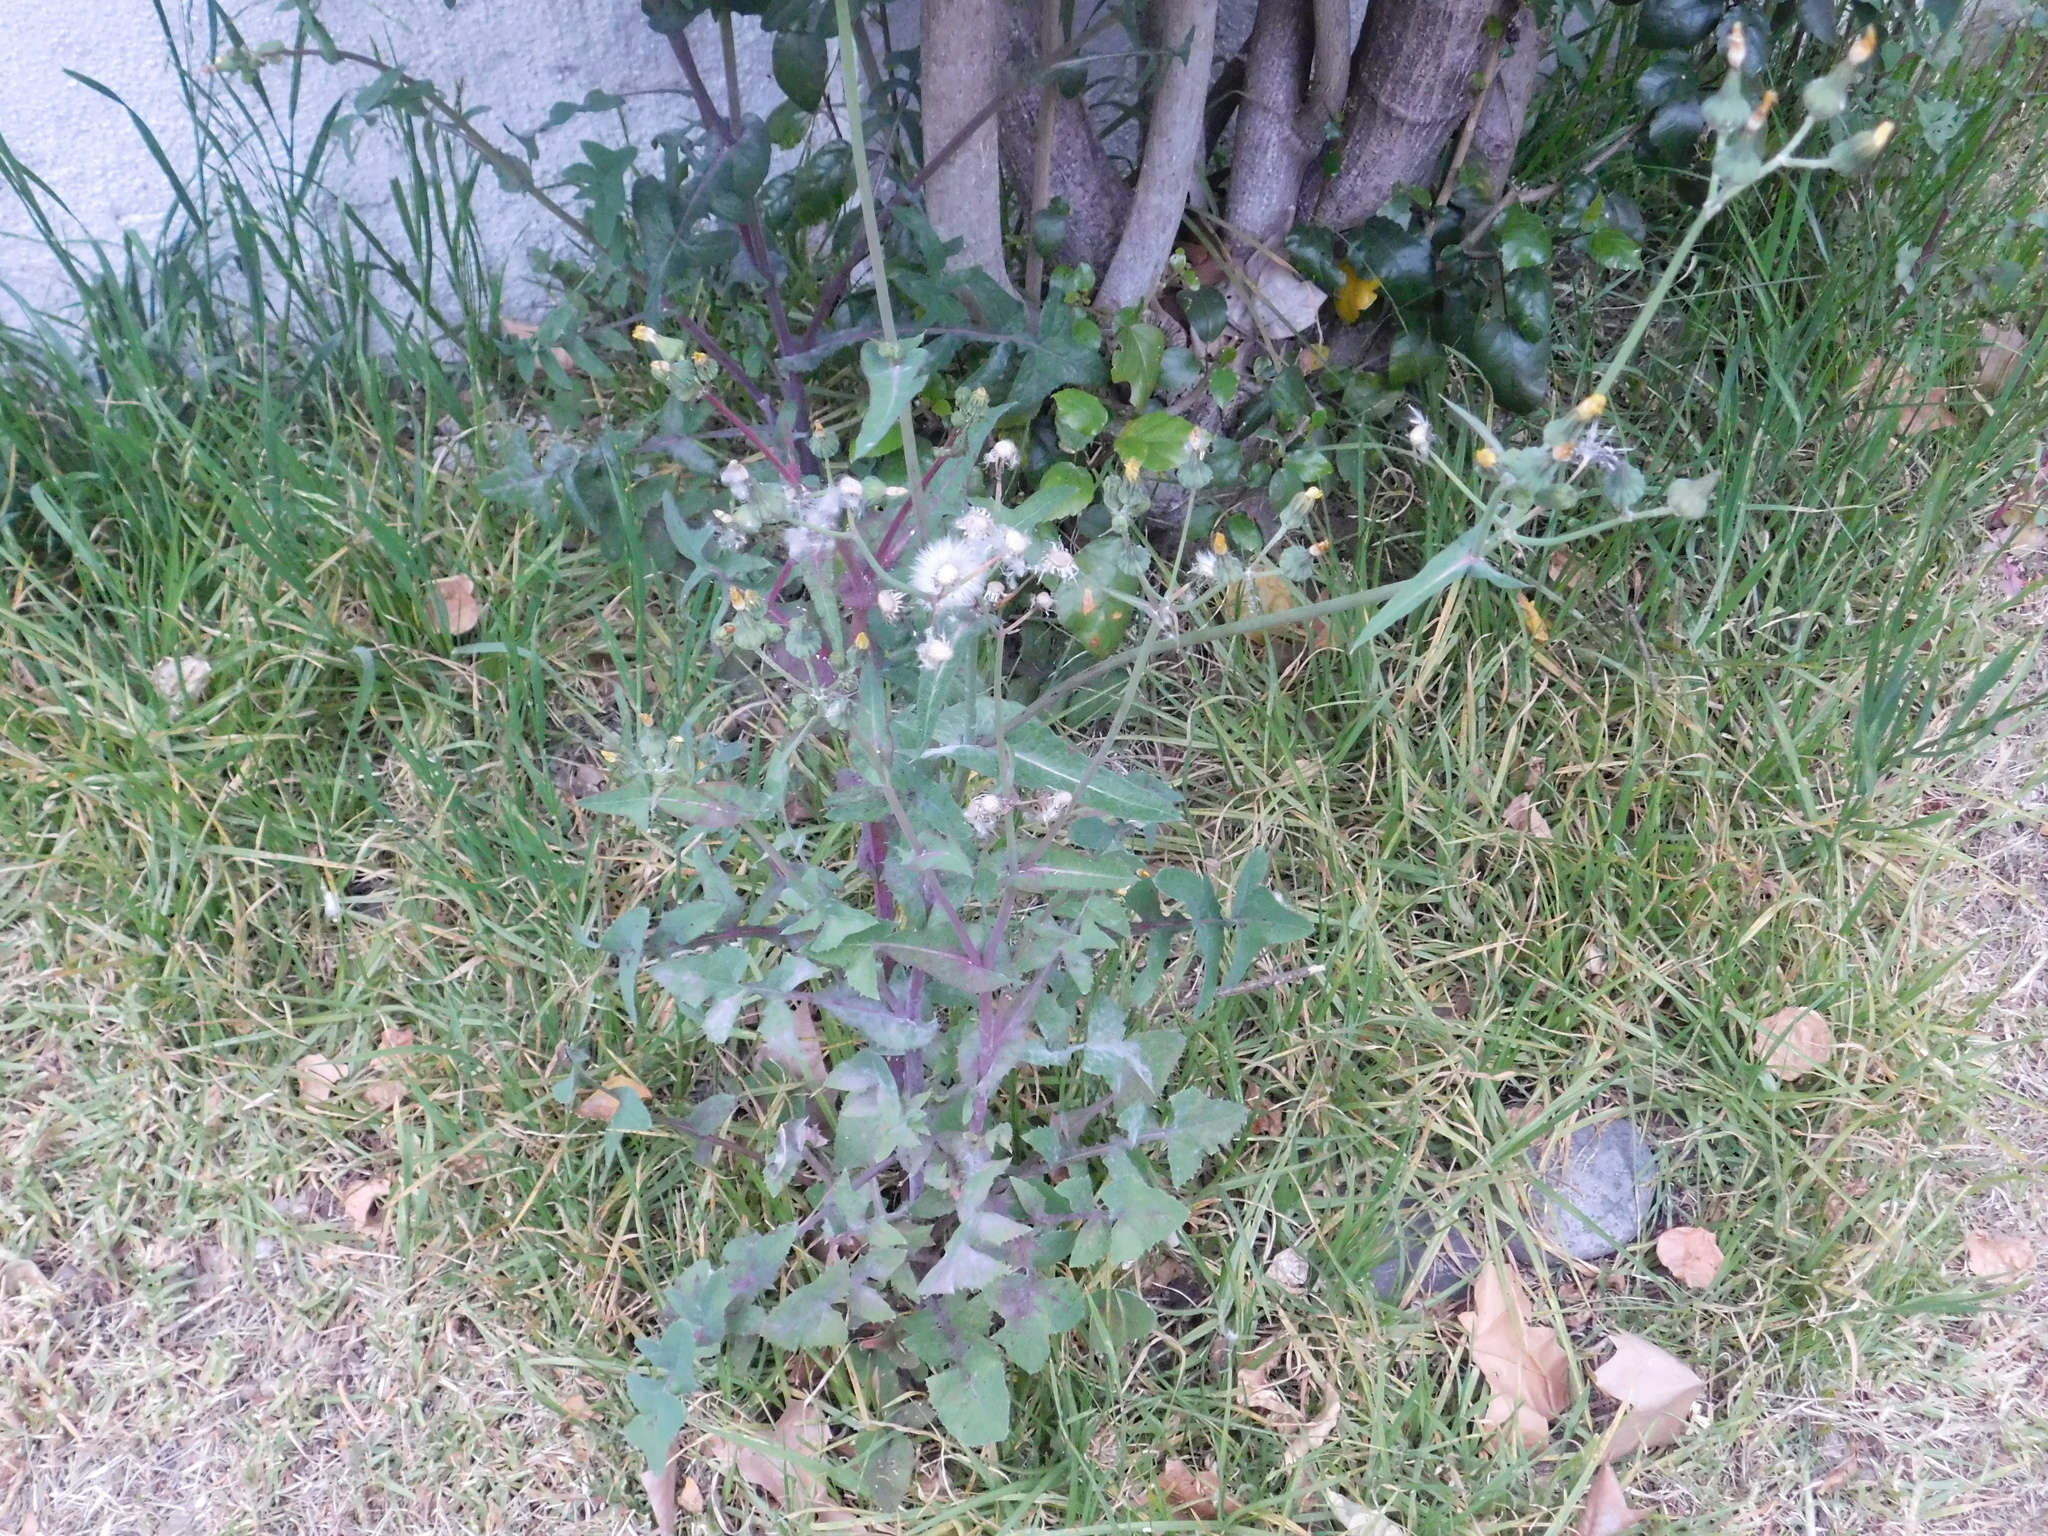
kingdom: Plantae
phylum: Tracheophyta
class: Magnoliopsida
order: Asterales
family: Asteraceae
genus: Sonchus
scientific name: Sonchus oleraceus
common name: Common sowthistle
